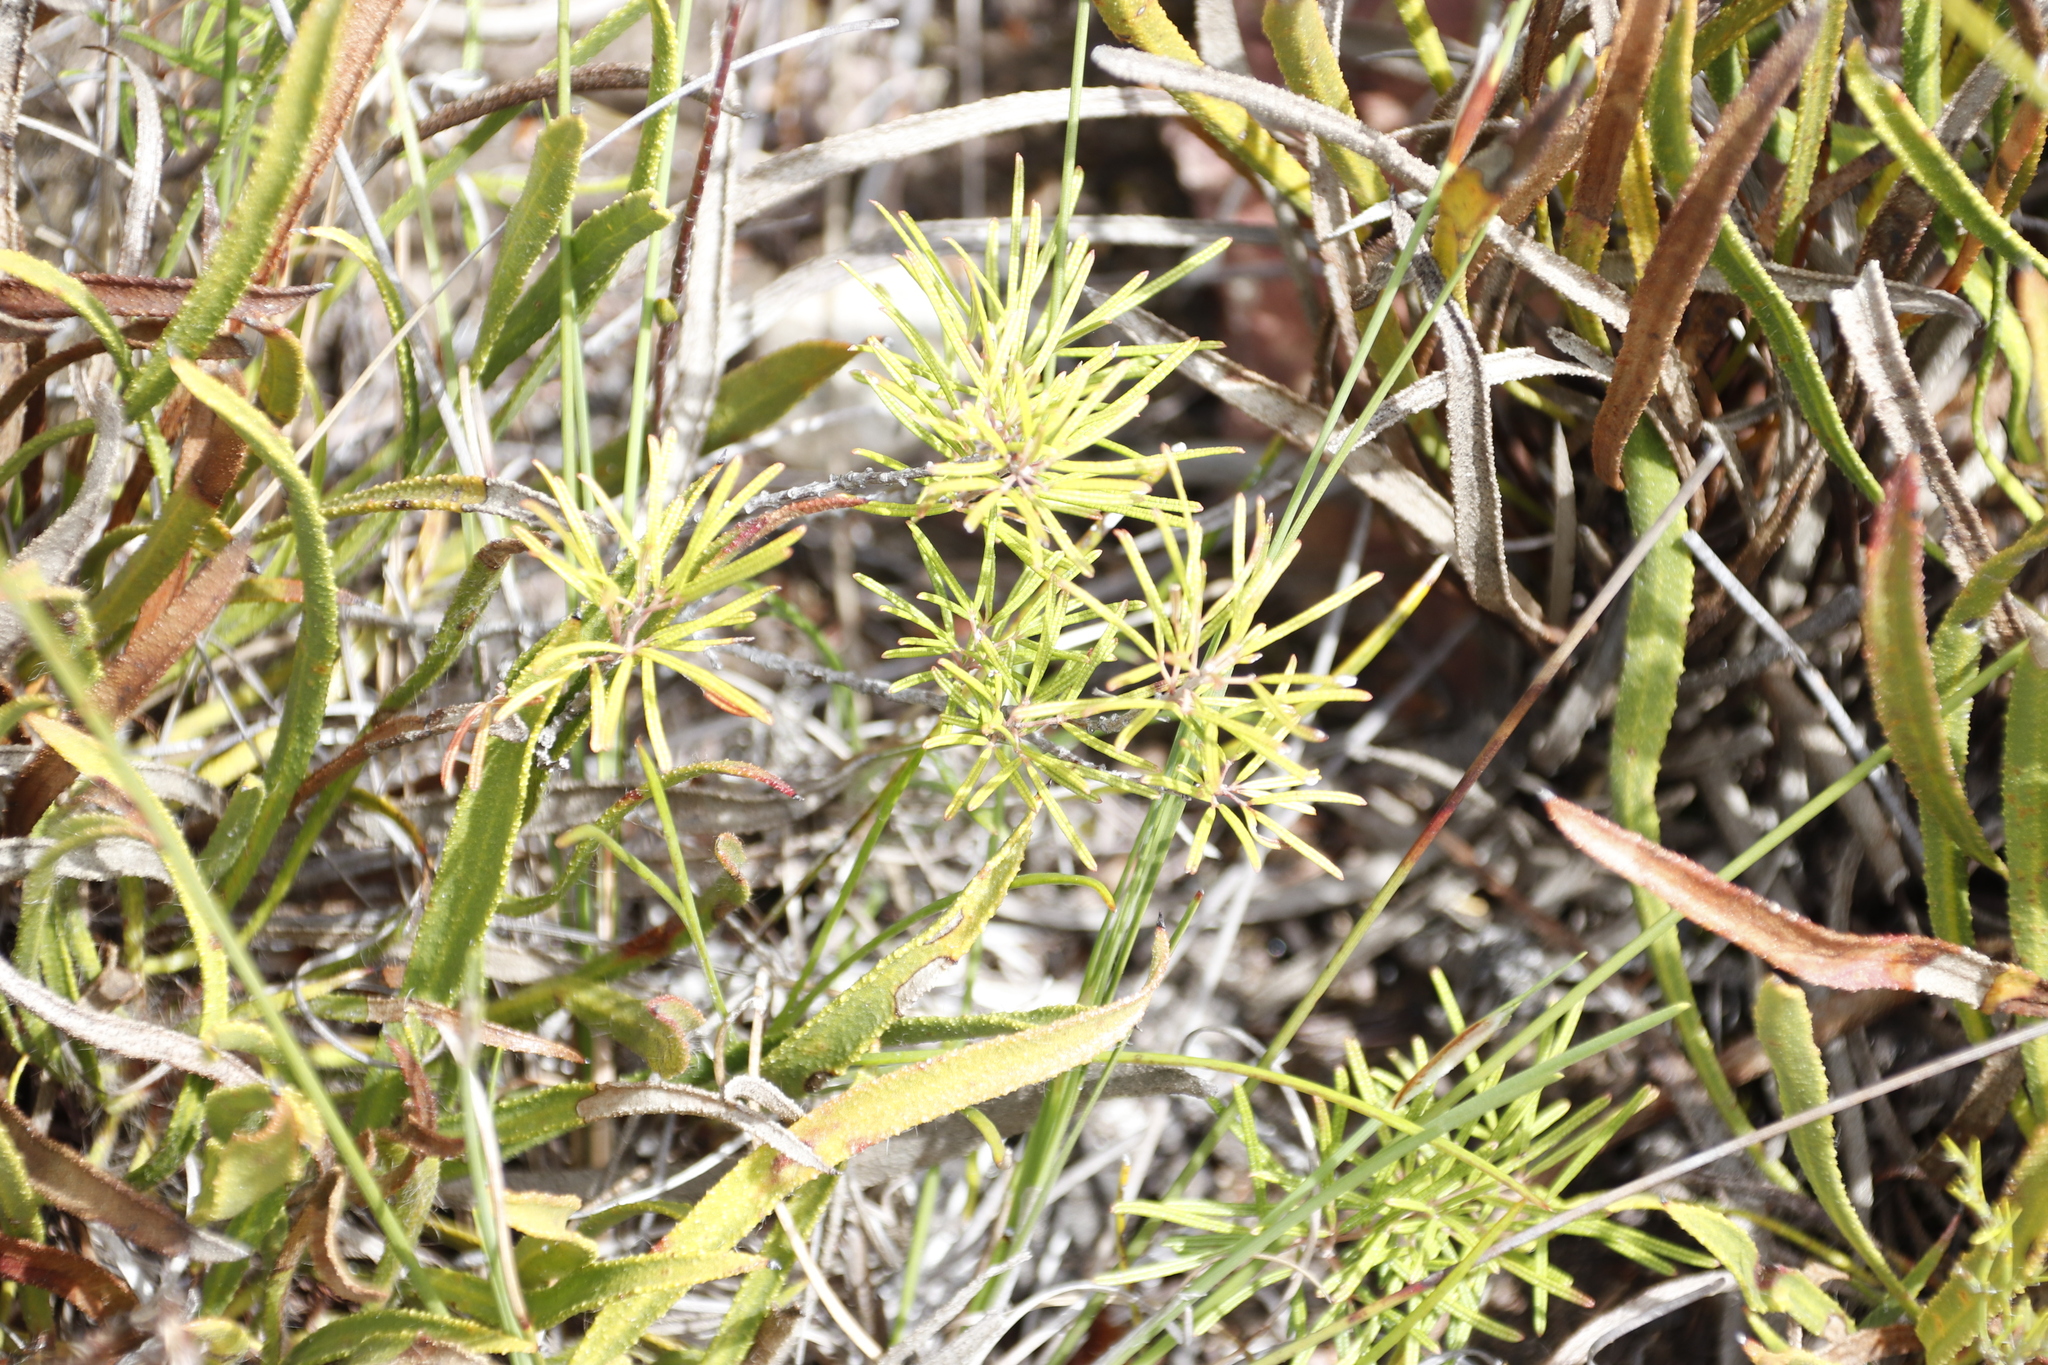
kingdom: Plantae
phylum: Tracheophyta
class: Magnoliopsida
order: Sapindales
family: Anacardiaceae
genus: Searsia
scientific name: Searsia rosmarinifolia
